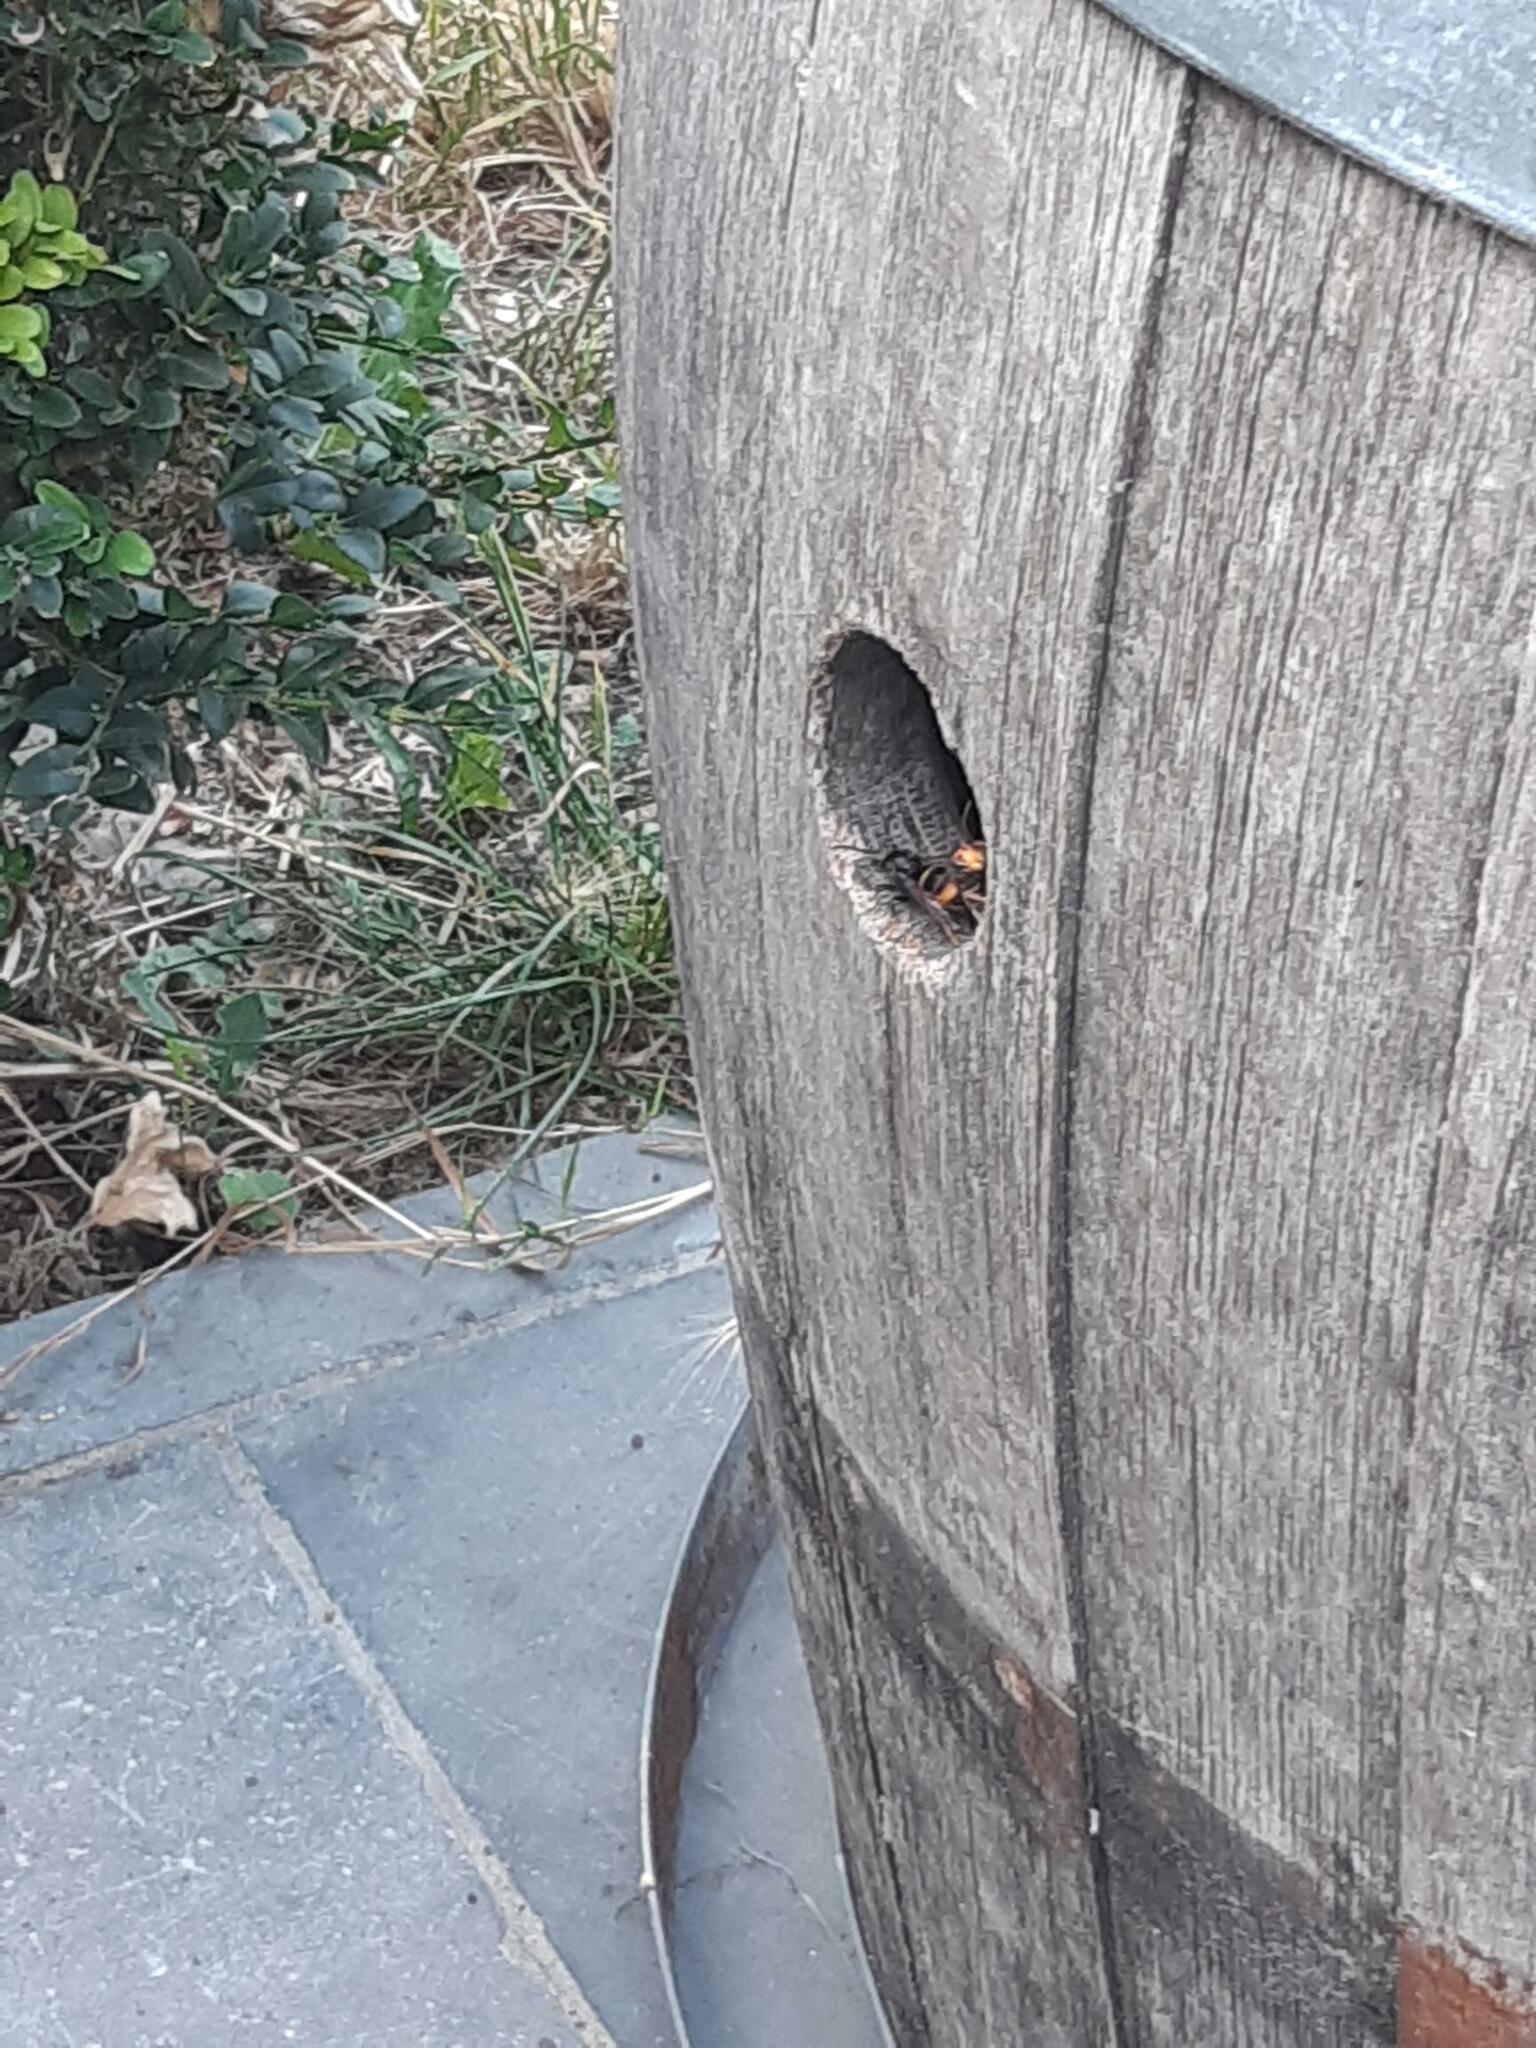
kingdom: Animalia
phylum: Arthropoda
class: Insecta
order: Hymenoptera
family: Vespidae
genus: Vespa
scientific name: Vespa velutina
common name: Asian hornet
